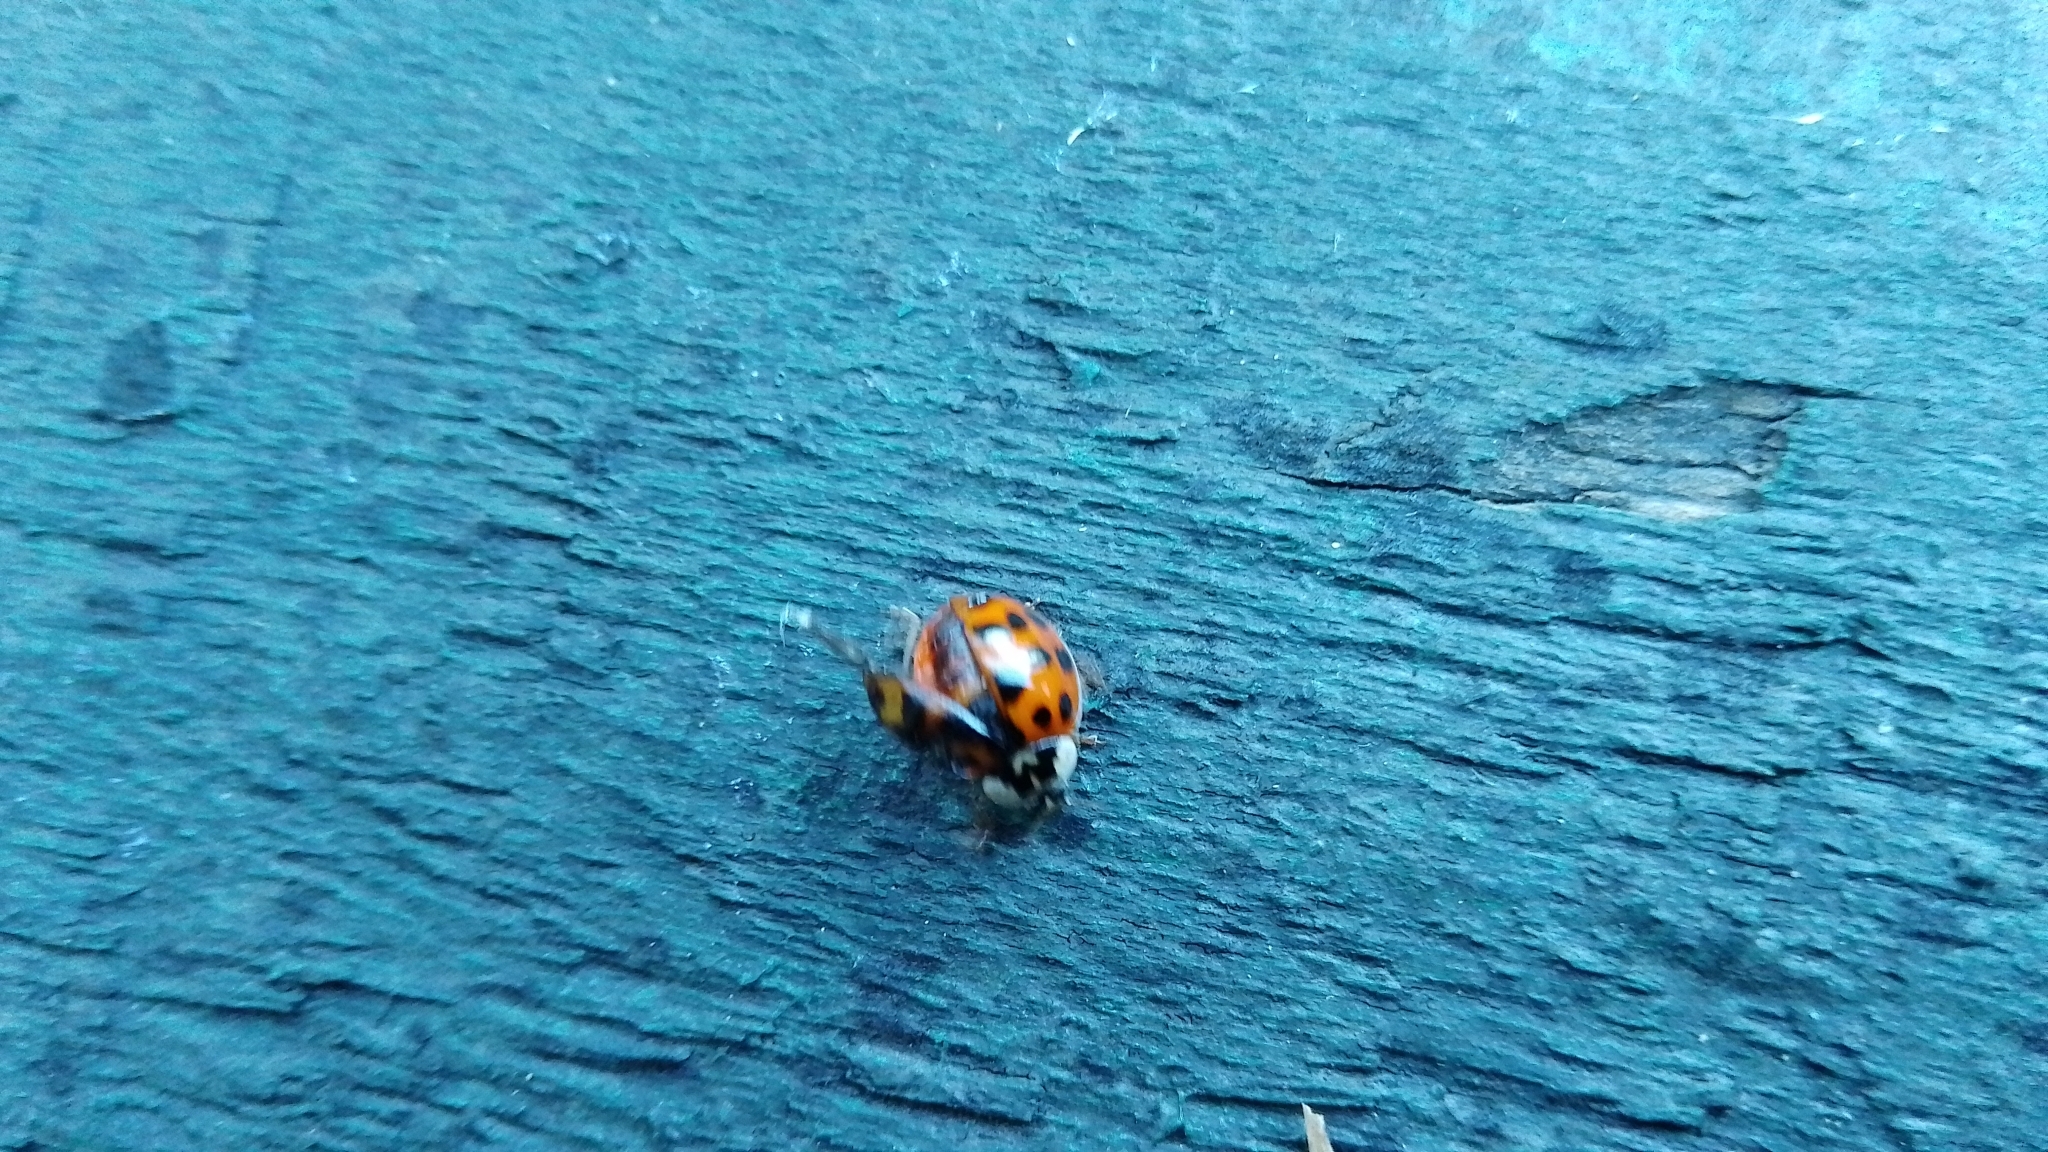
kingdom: Animalia
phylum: Arthropoda
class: Insecta
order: Coleoptera
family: Coccinellidae
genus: Harmonia
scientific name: Harmonia axyridis
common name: Harlequin ladybird
